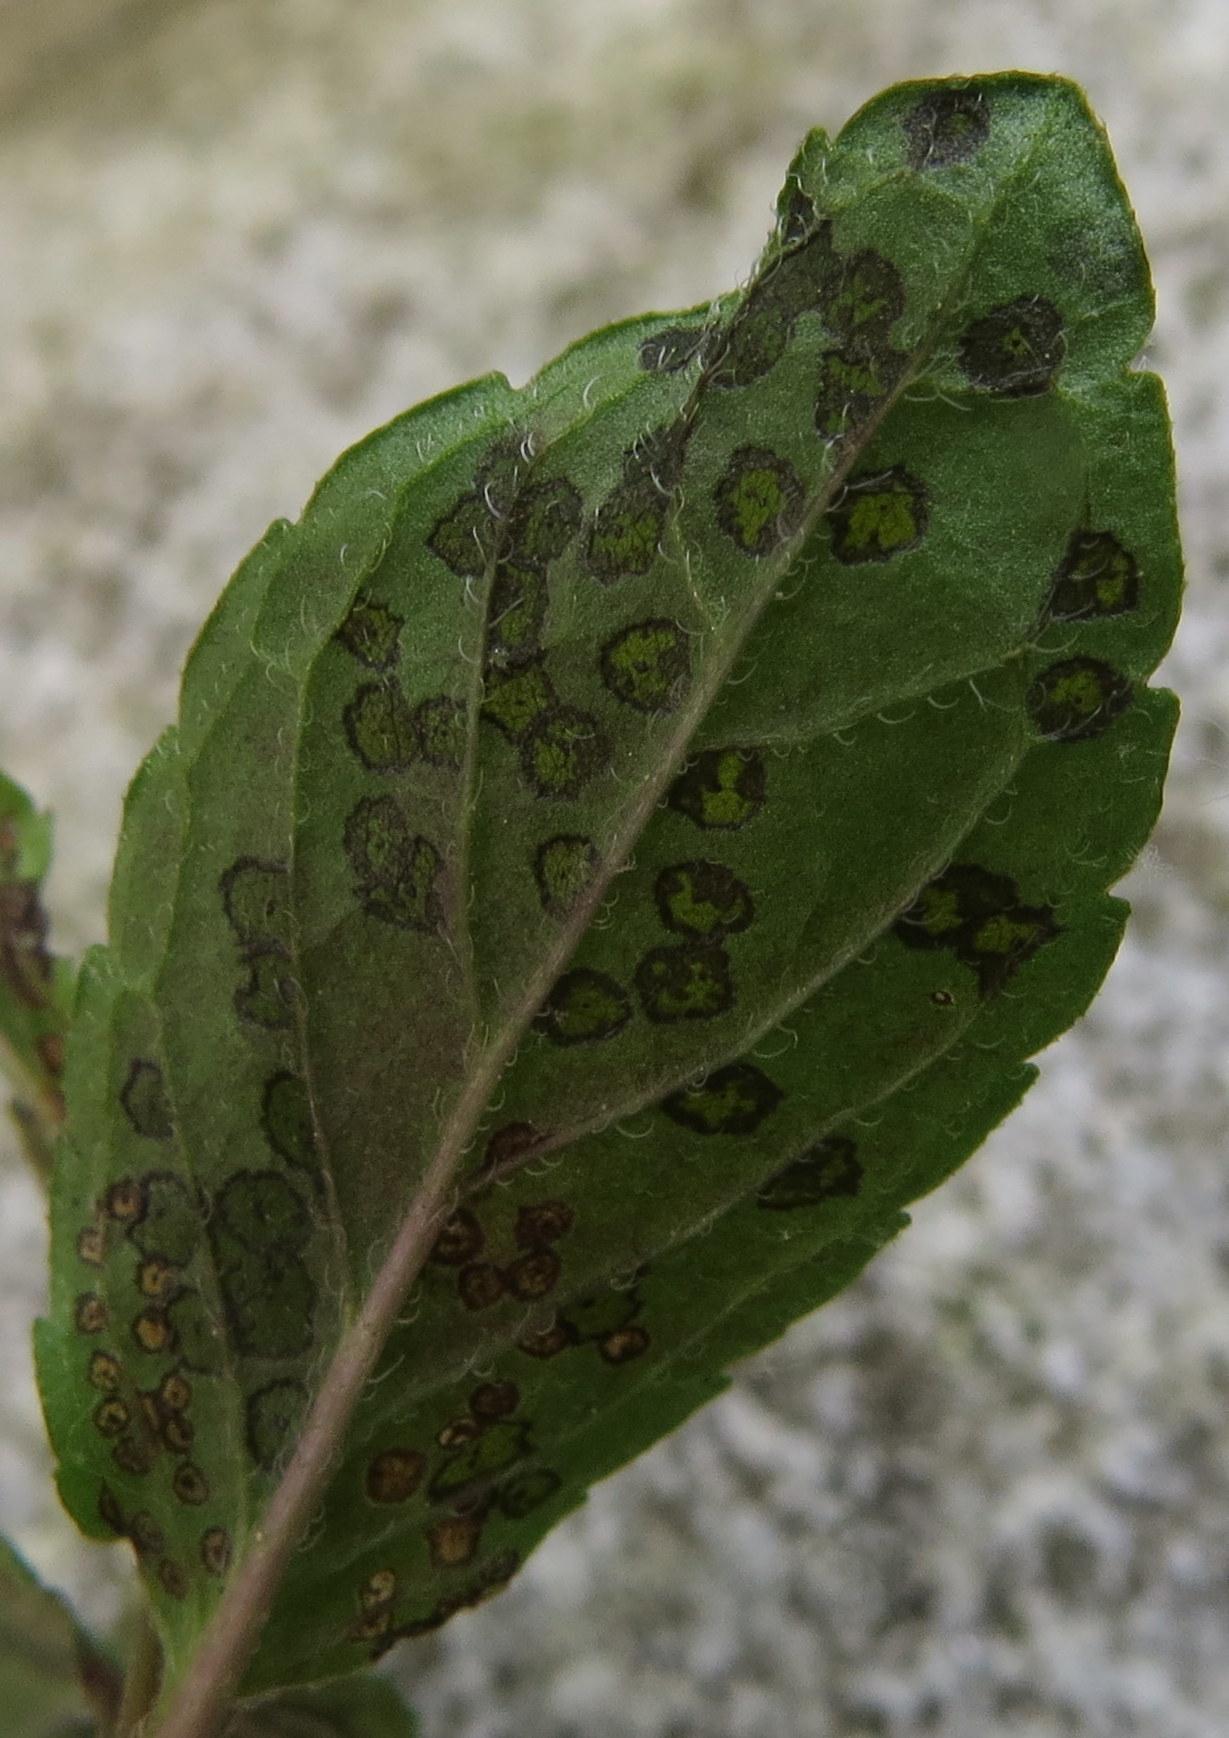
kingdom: Animalia
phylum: Arthropoda
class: Insecta
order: Hemiptera
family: Miridae
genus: Poecilocapsus
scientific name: Poecilocapsus lineatus
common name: Four-lined plant bug
